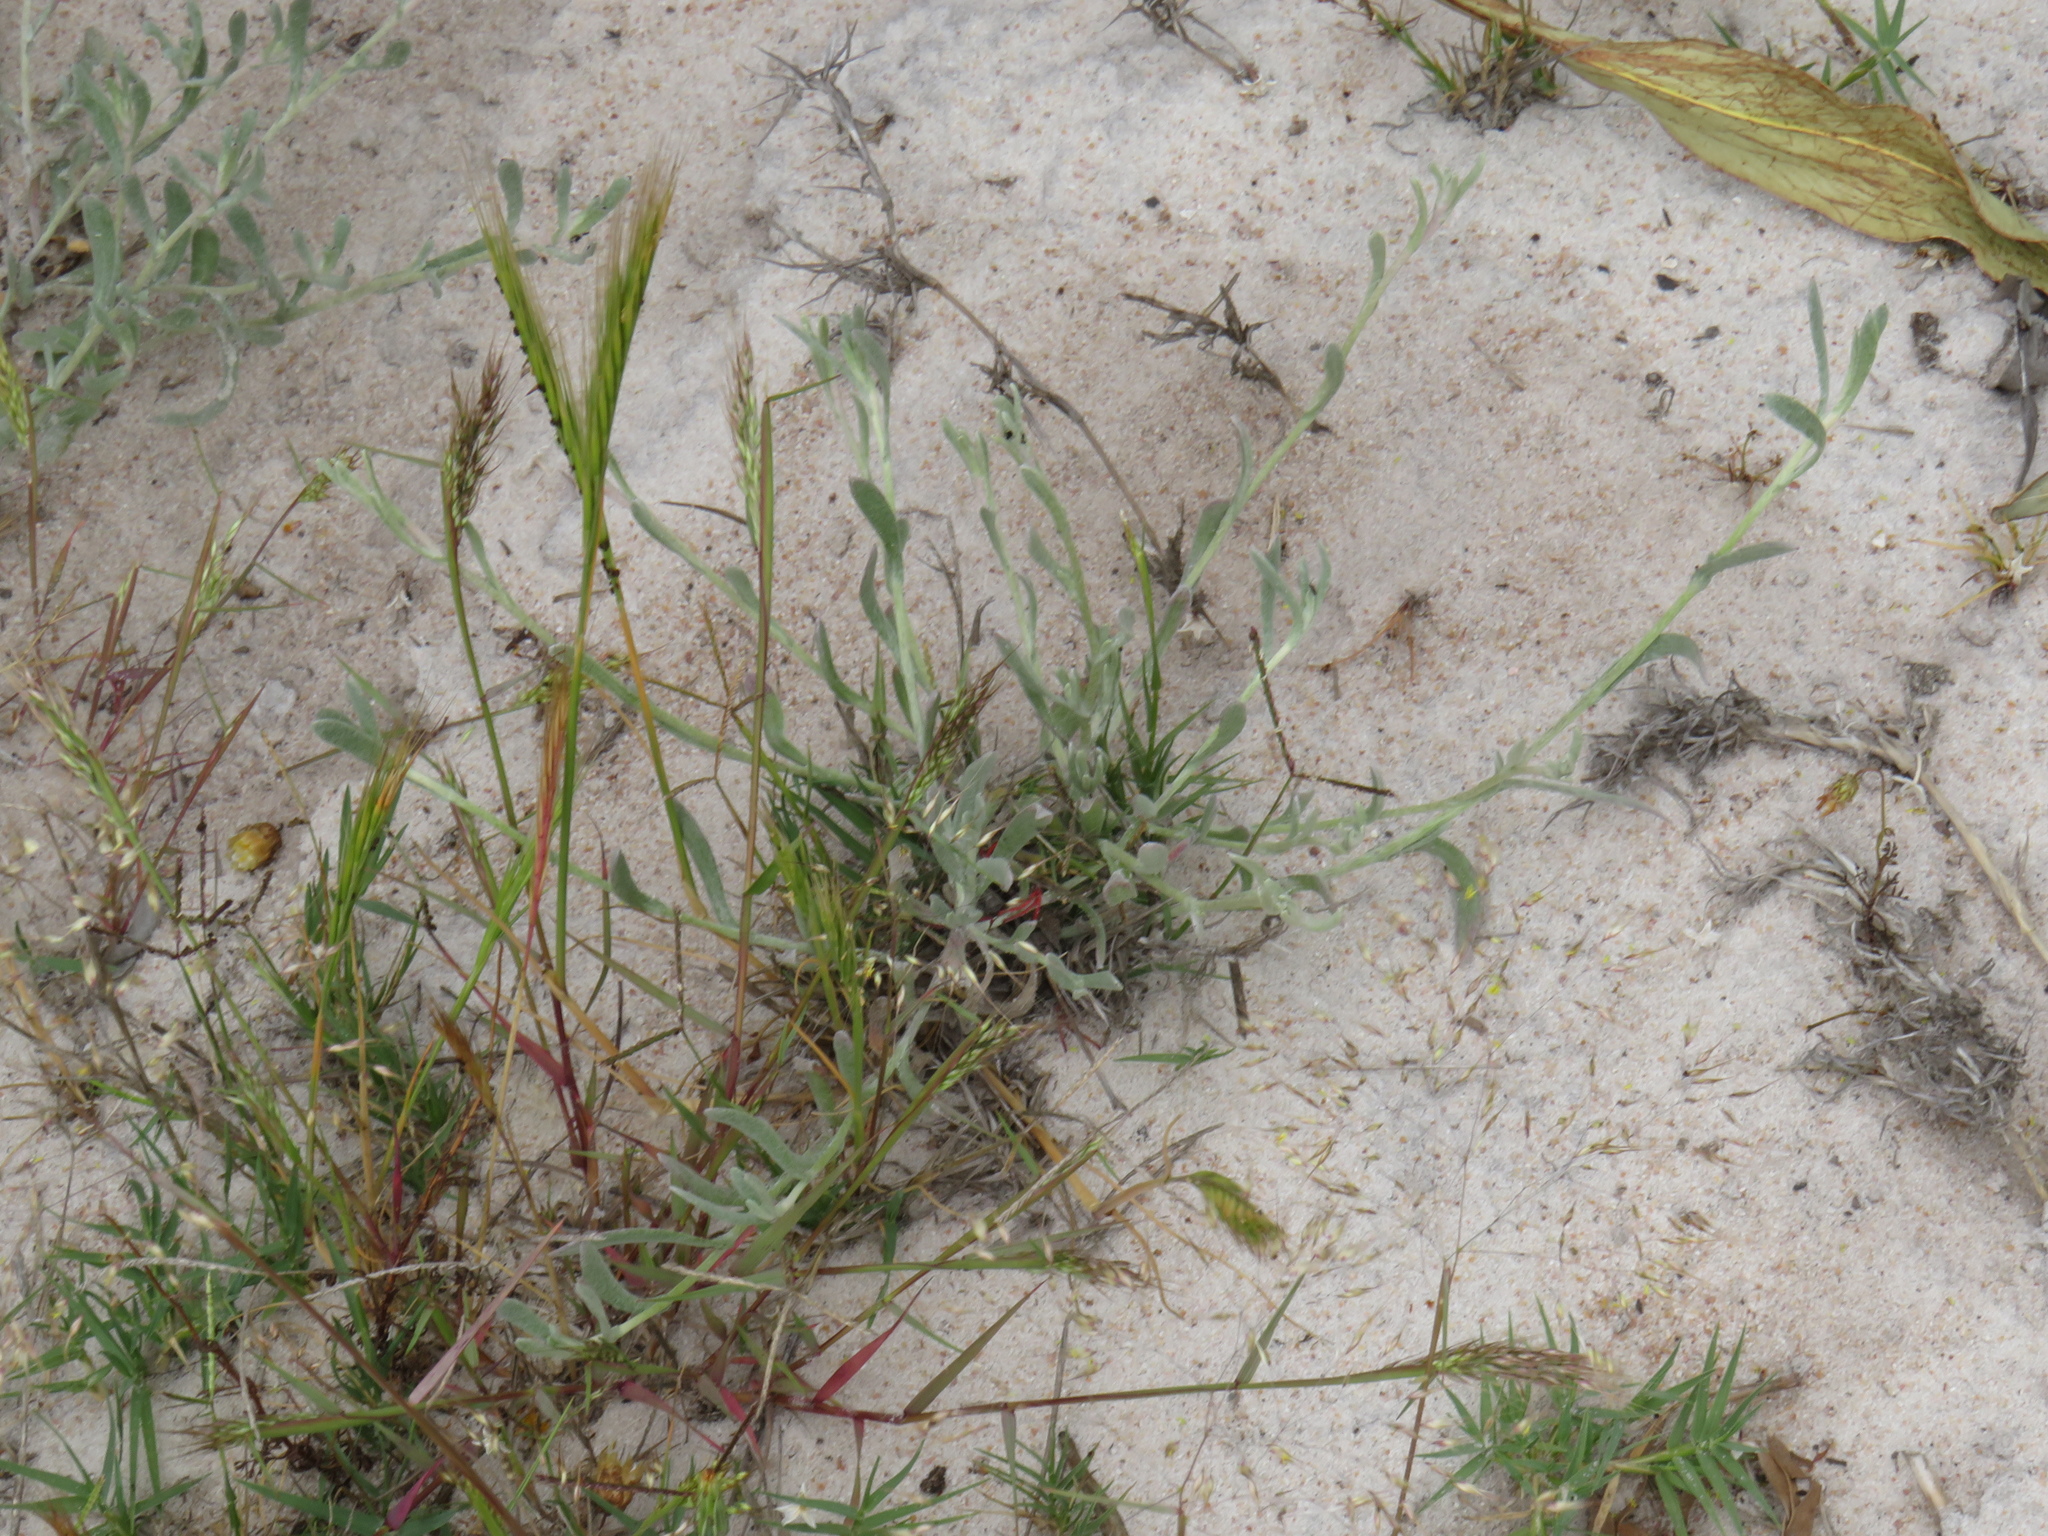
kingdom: Plantae
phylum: Tracheophyta
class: Magnoliopsida
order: Asterales
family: Asteraceae
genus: Helichrysum
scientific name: Helichrysum indicum
